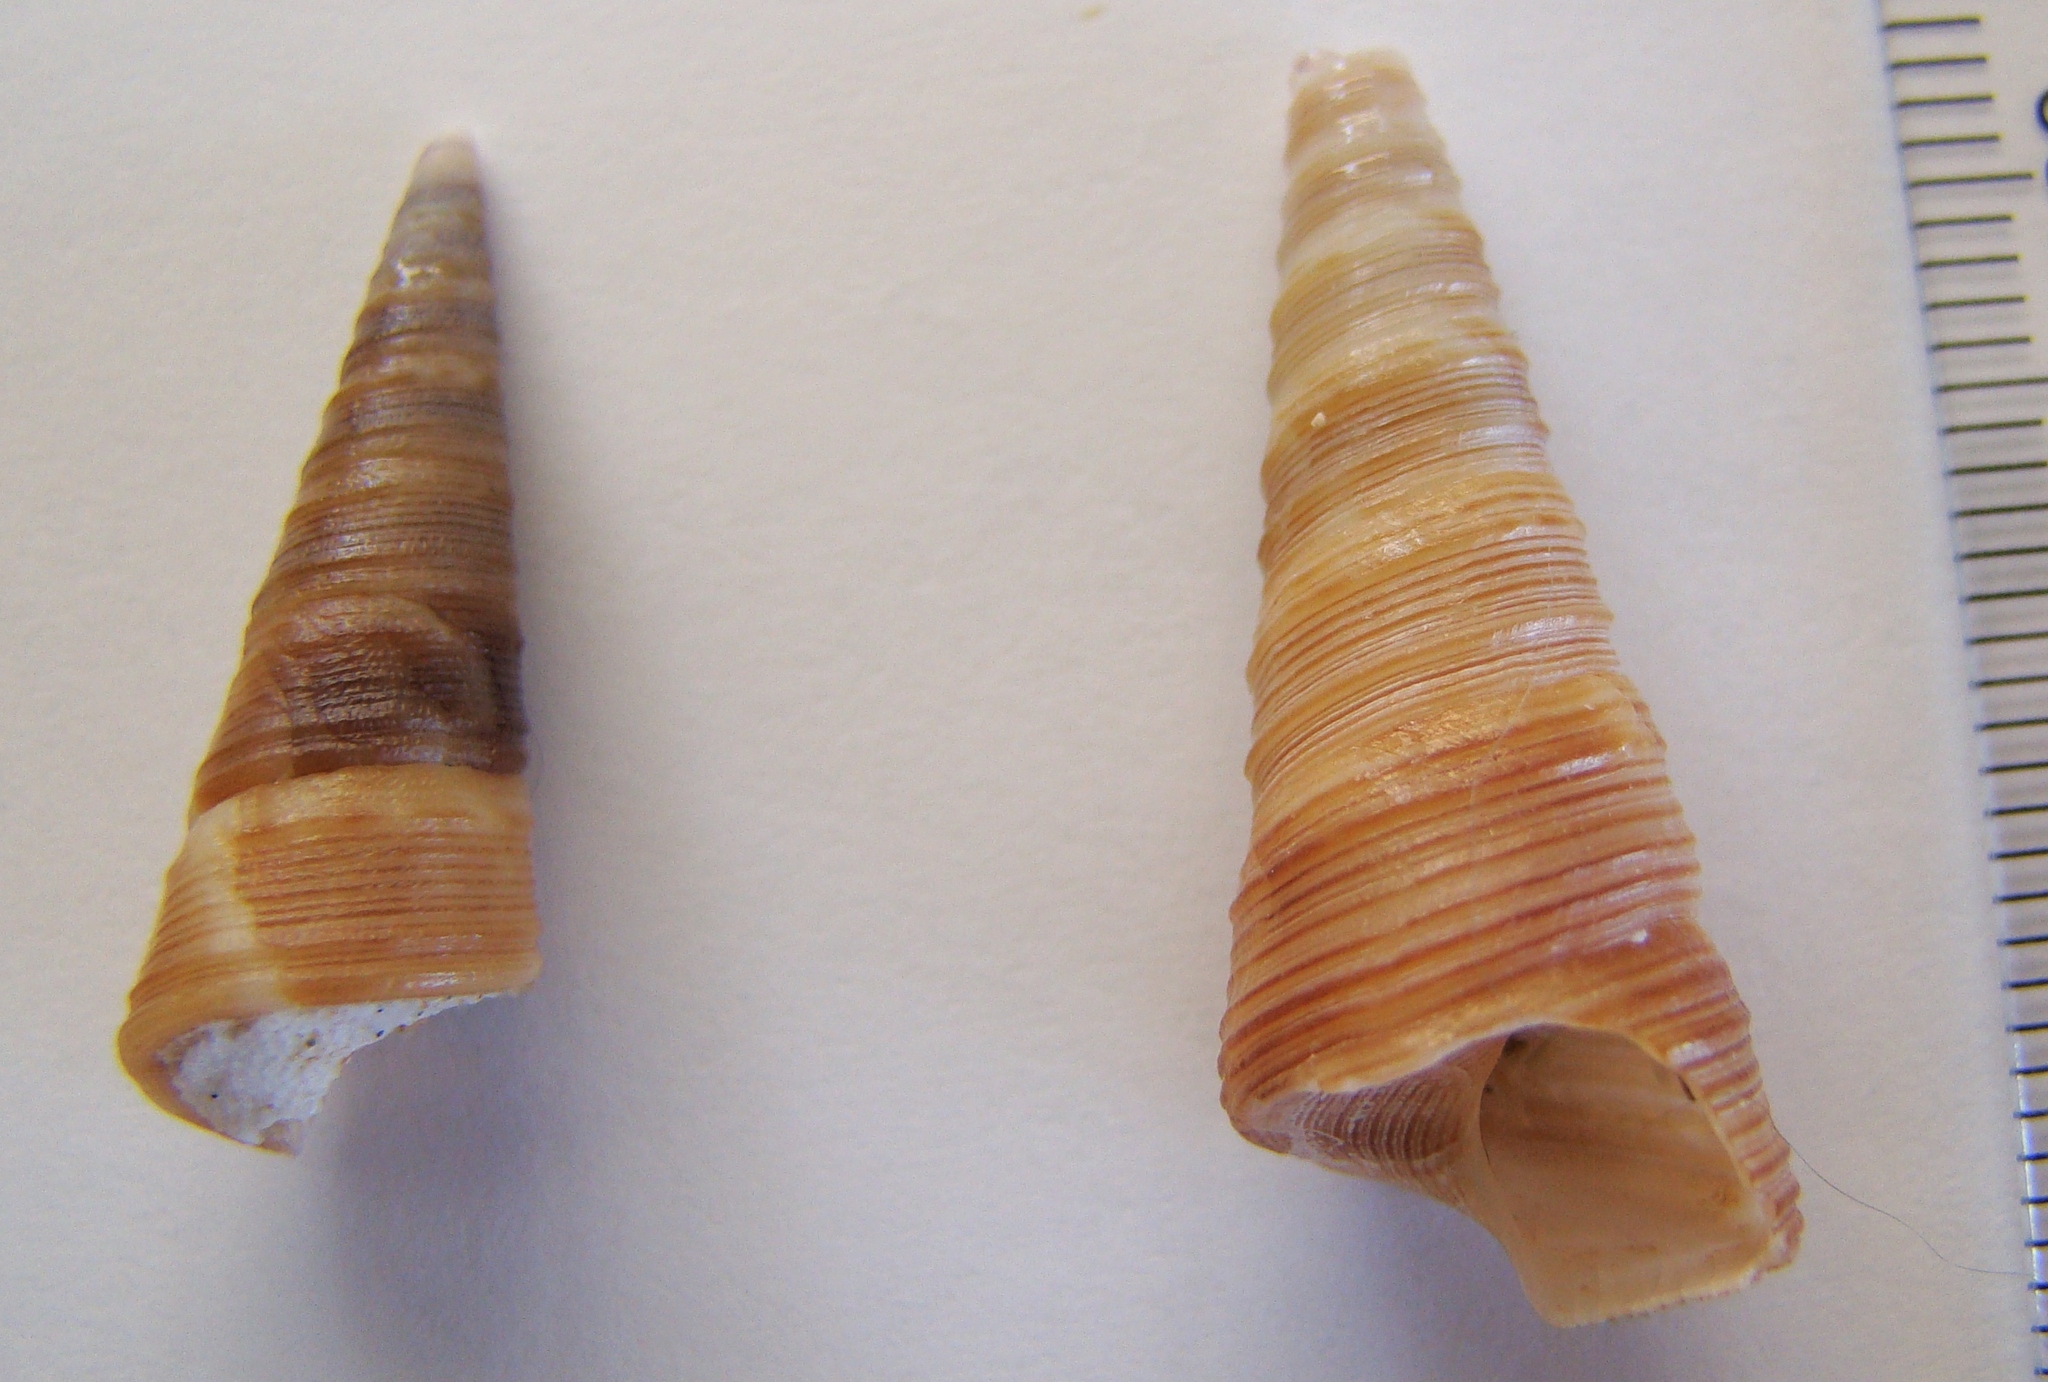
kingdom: Animalia
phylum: Mollusca
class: Gastropoda
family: Turritellidae
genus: Maoricolpus
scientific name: Maoricolpus roseus
